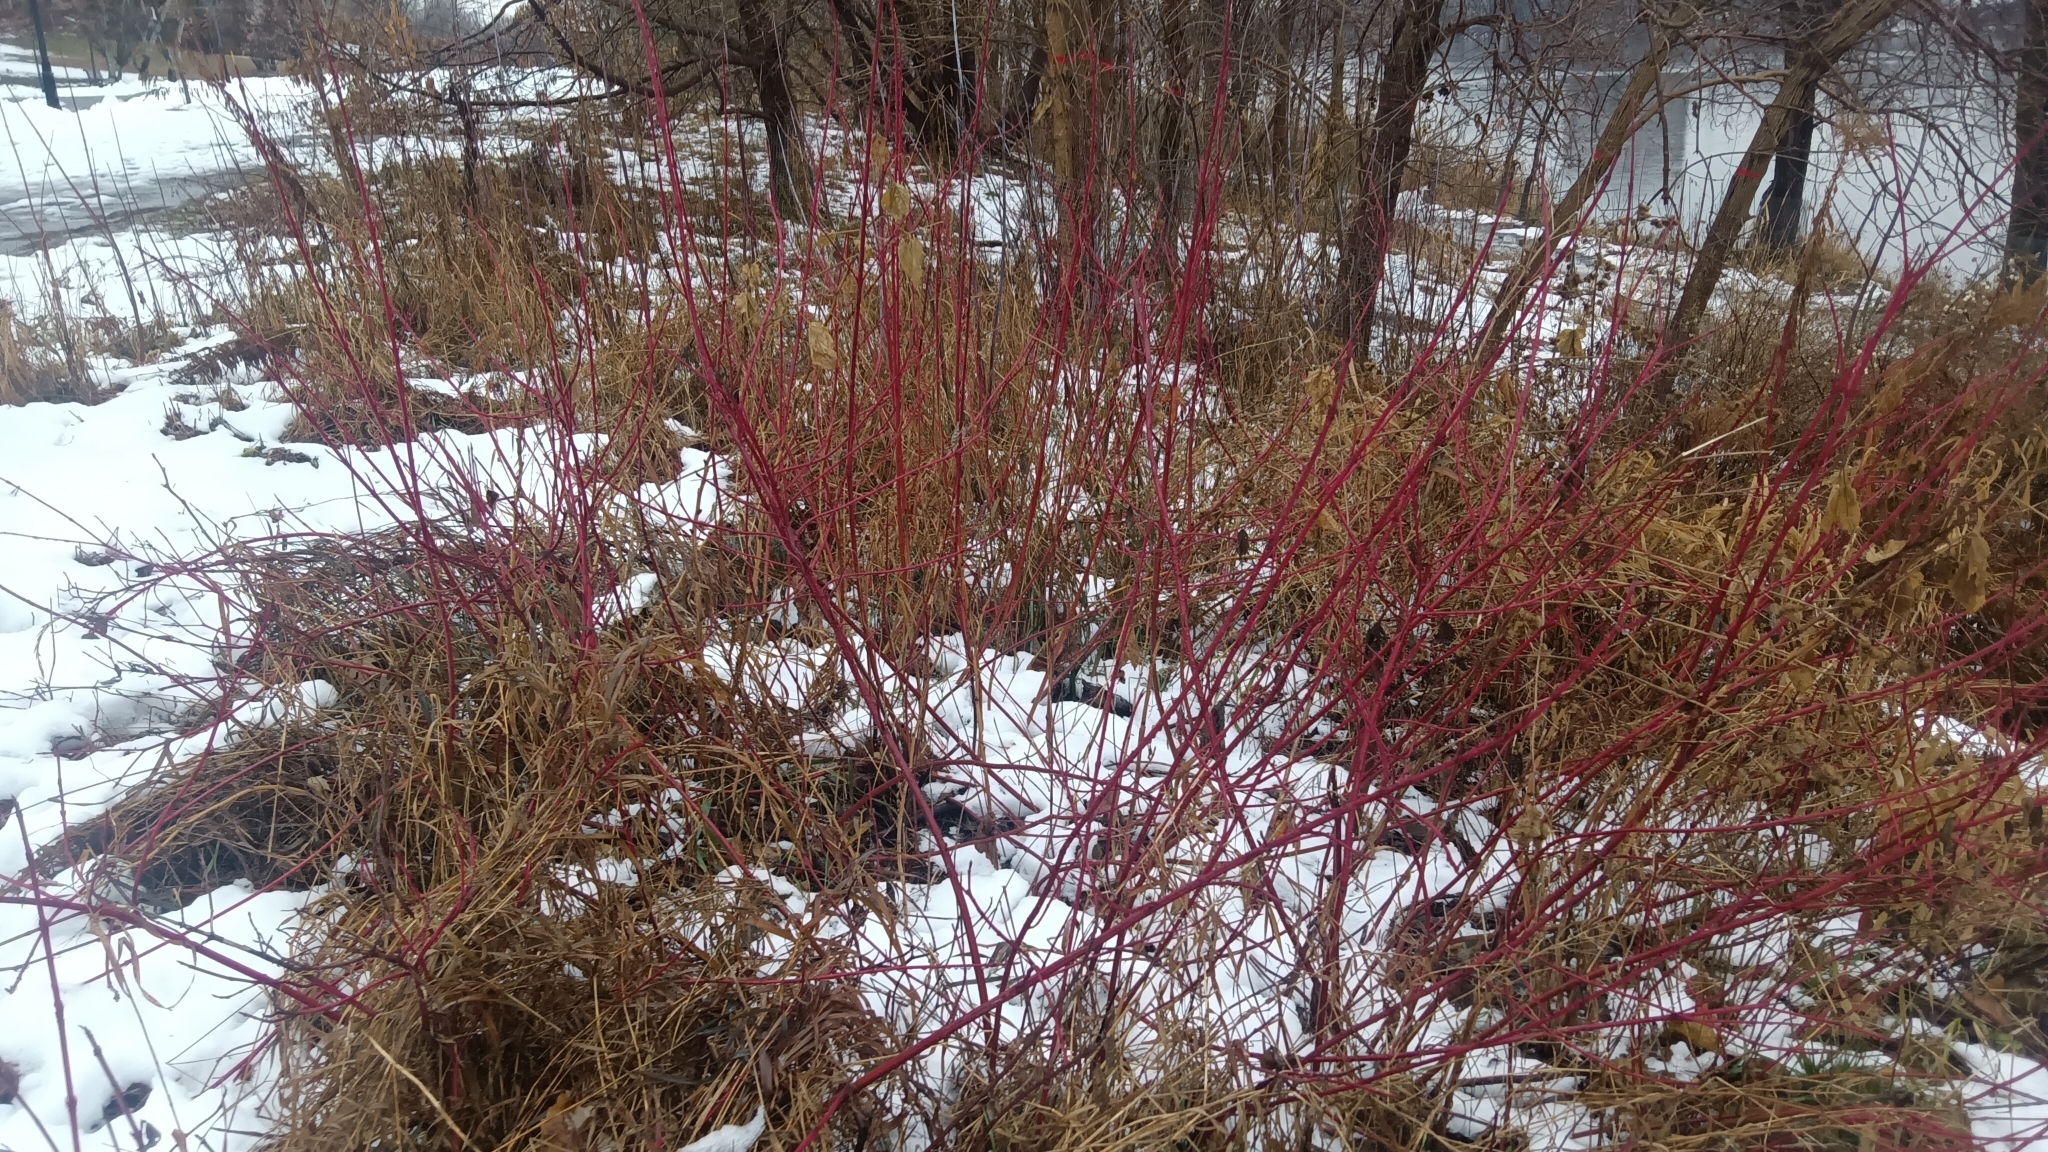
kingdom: Plantae
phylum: Tracheophyta
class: Magnoliopsida
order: Cornales
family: Cornaceae
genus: Cornus
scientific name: Cornus sericea
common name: Red-osier dogwood
